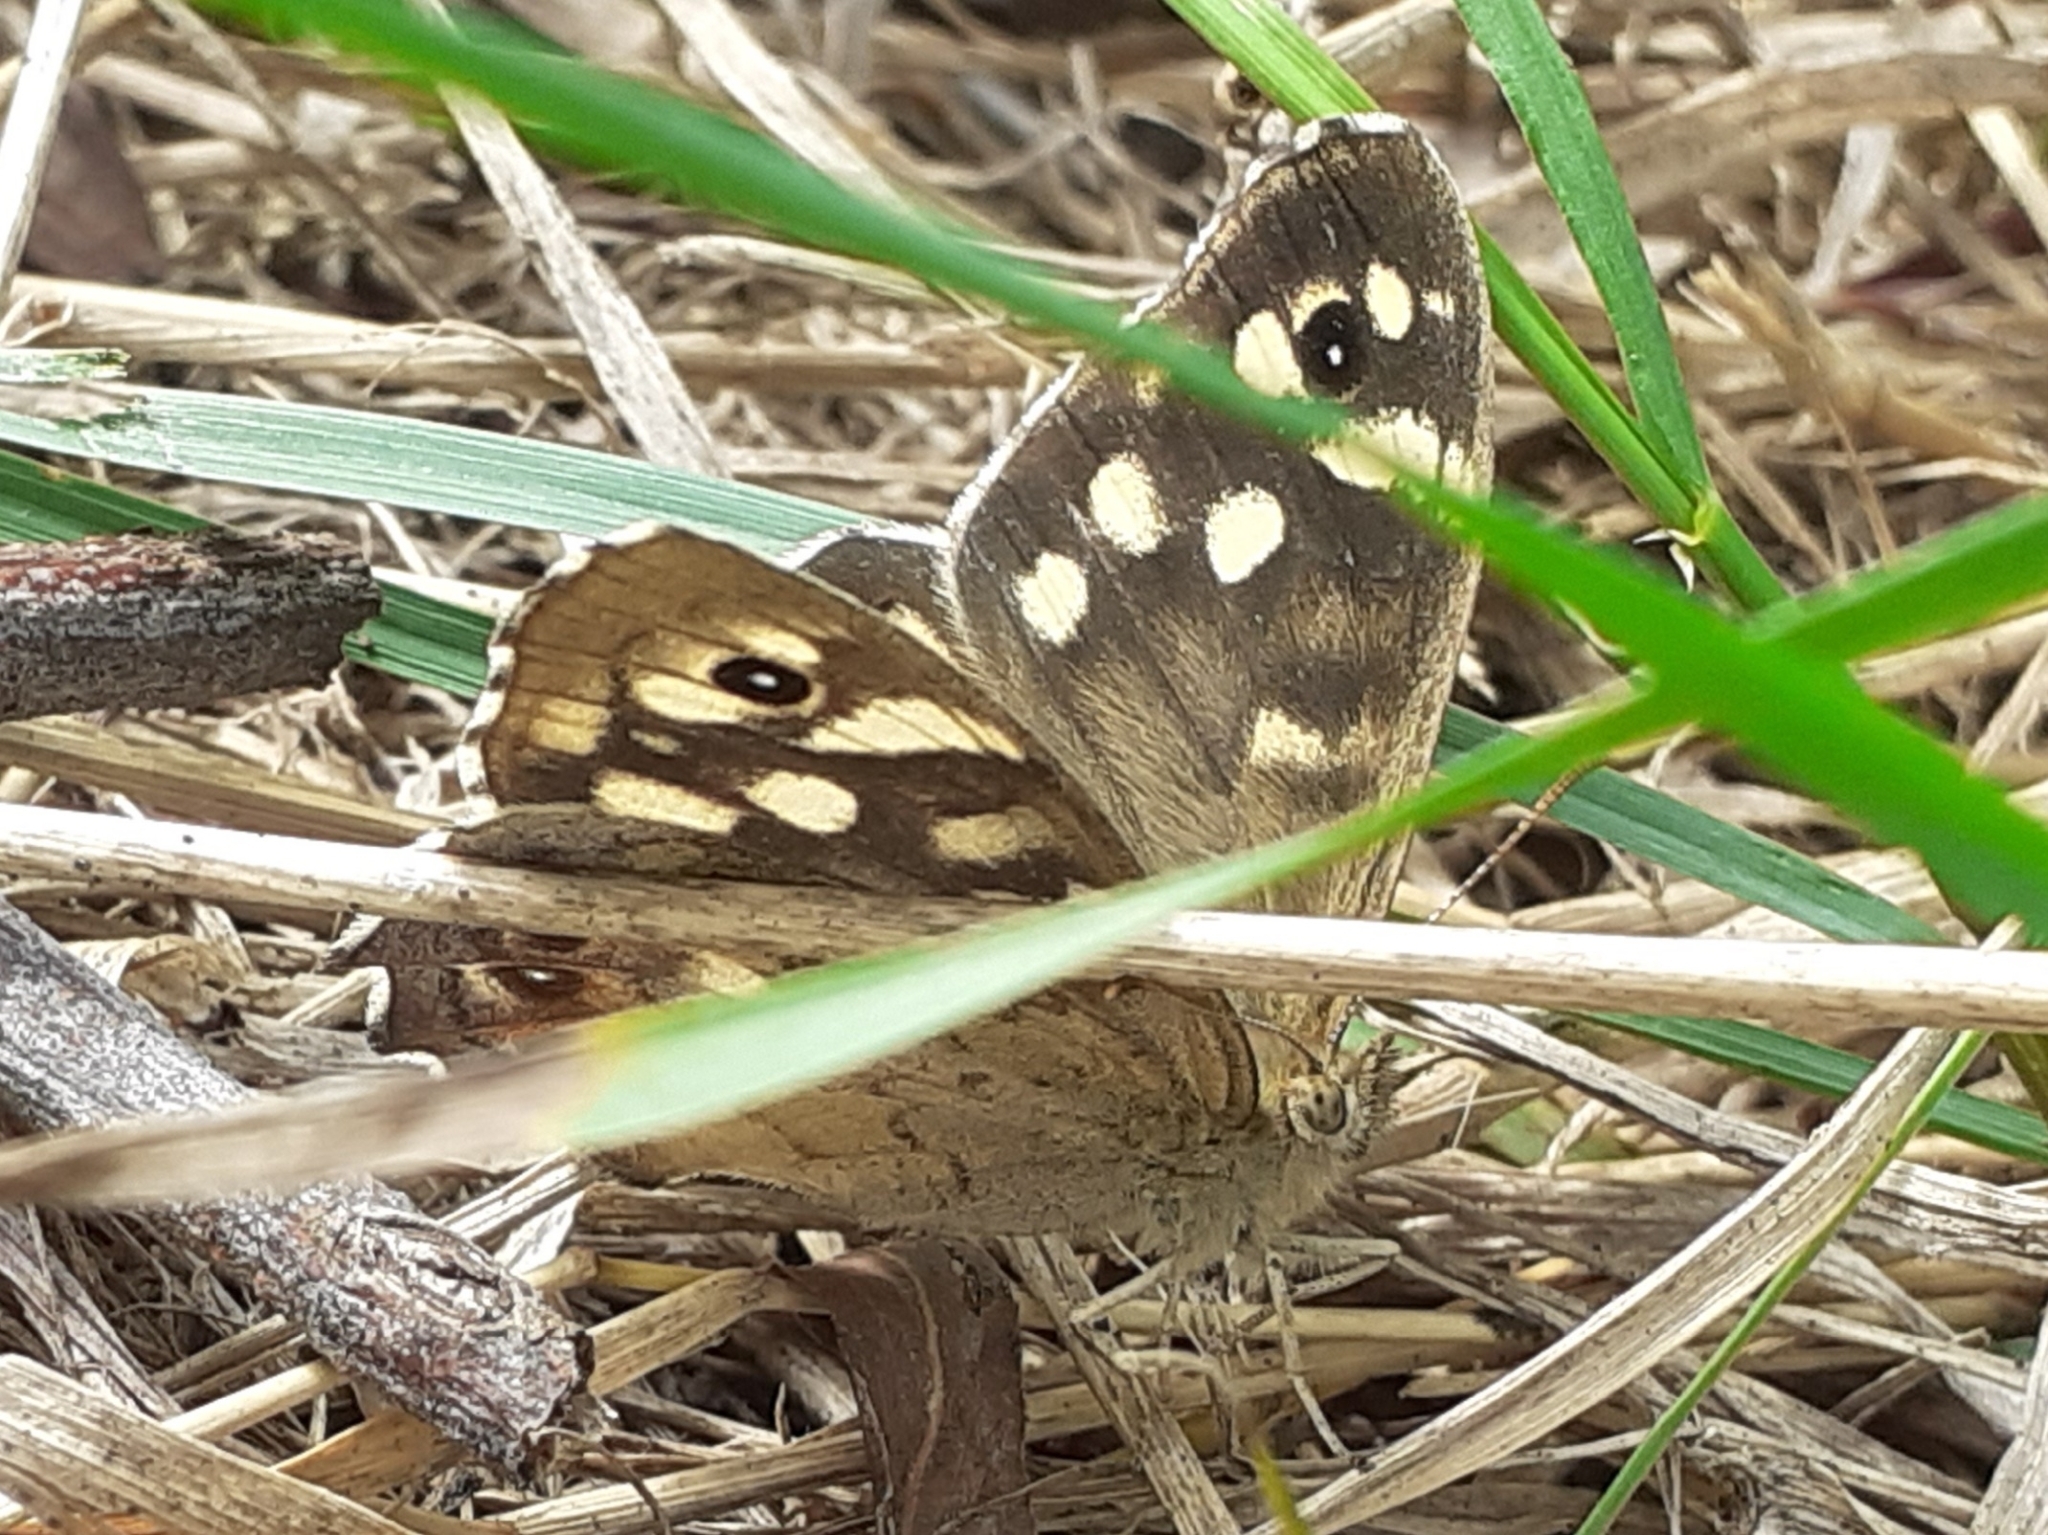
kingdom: Animalia
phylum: Arthropoda
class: Insecta
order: Lepidoptera
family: Nymphalidae
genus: Pararge
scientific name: Pararge aegeria
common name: Speckled wood
